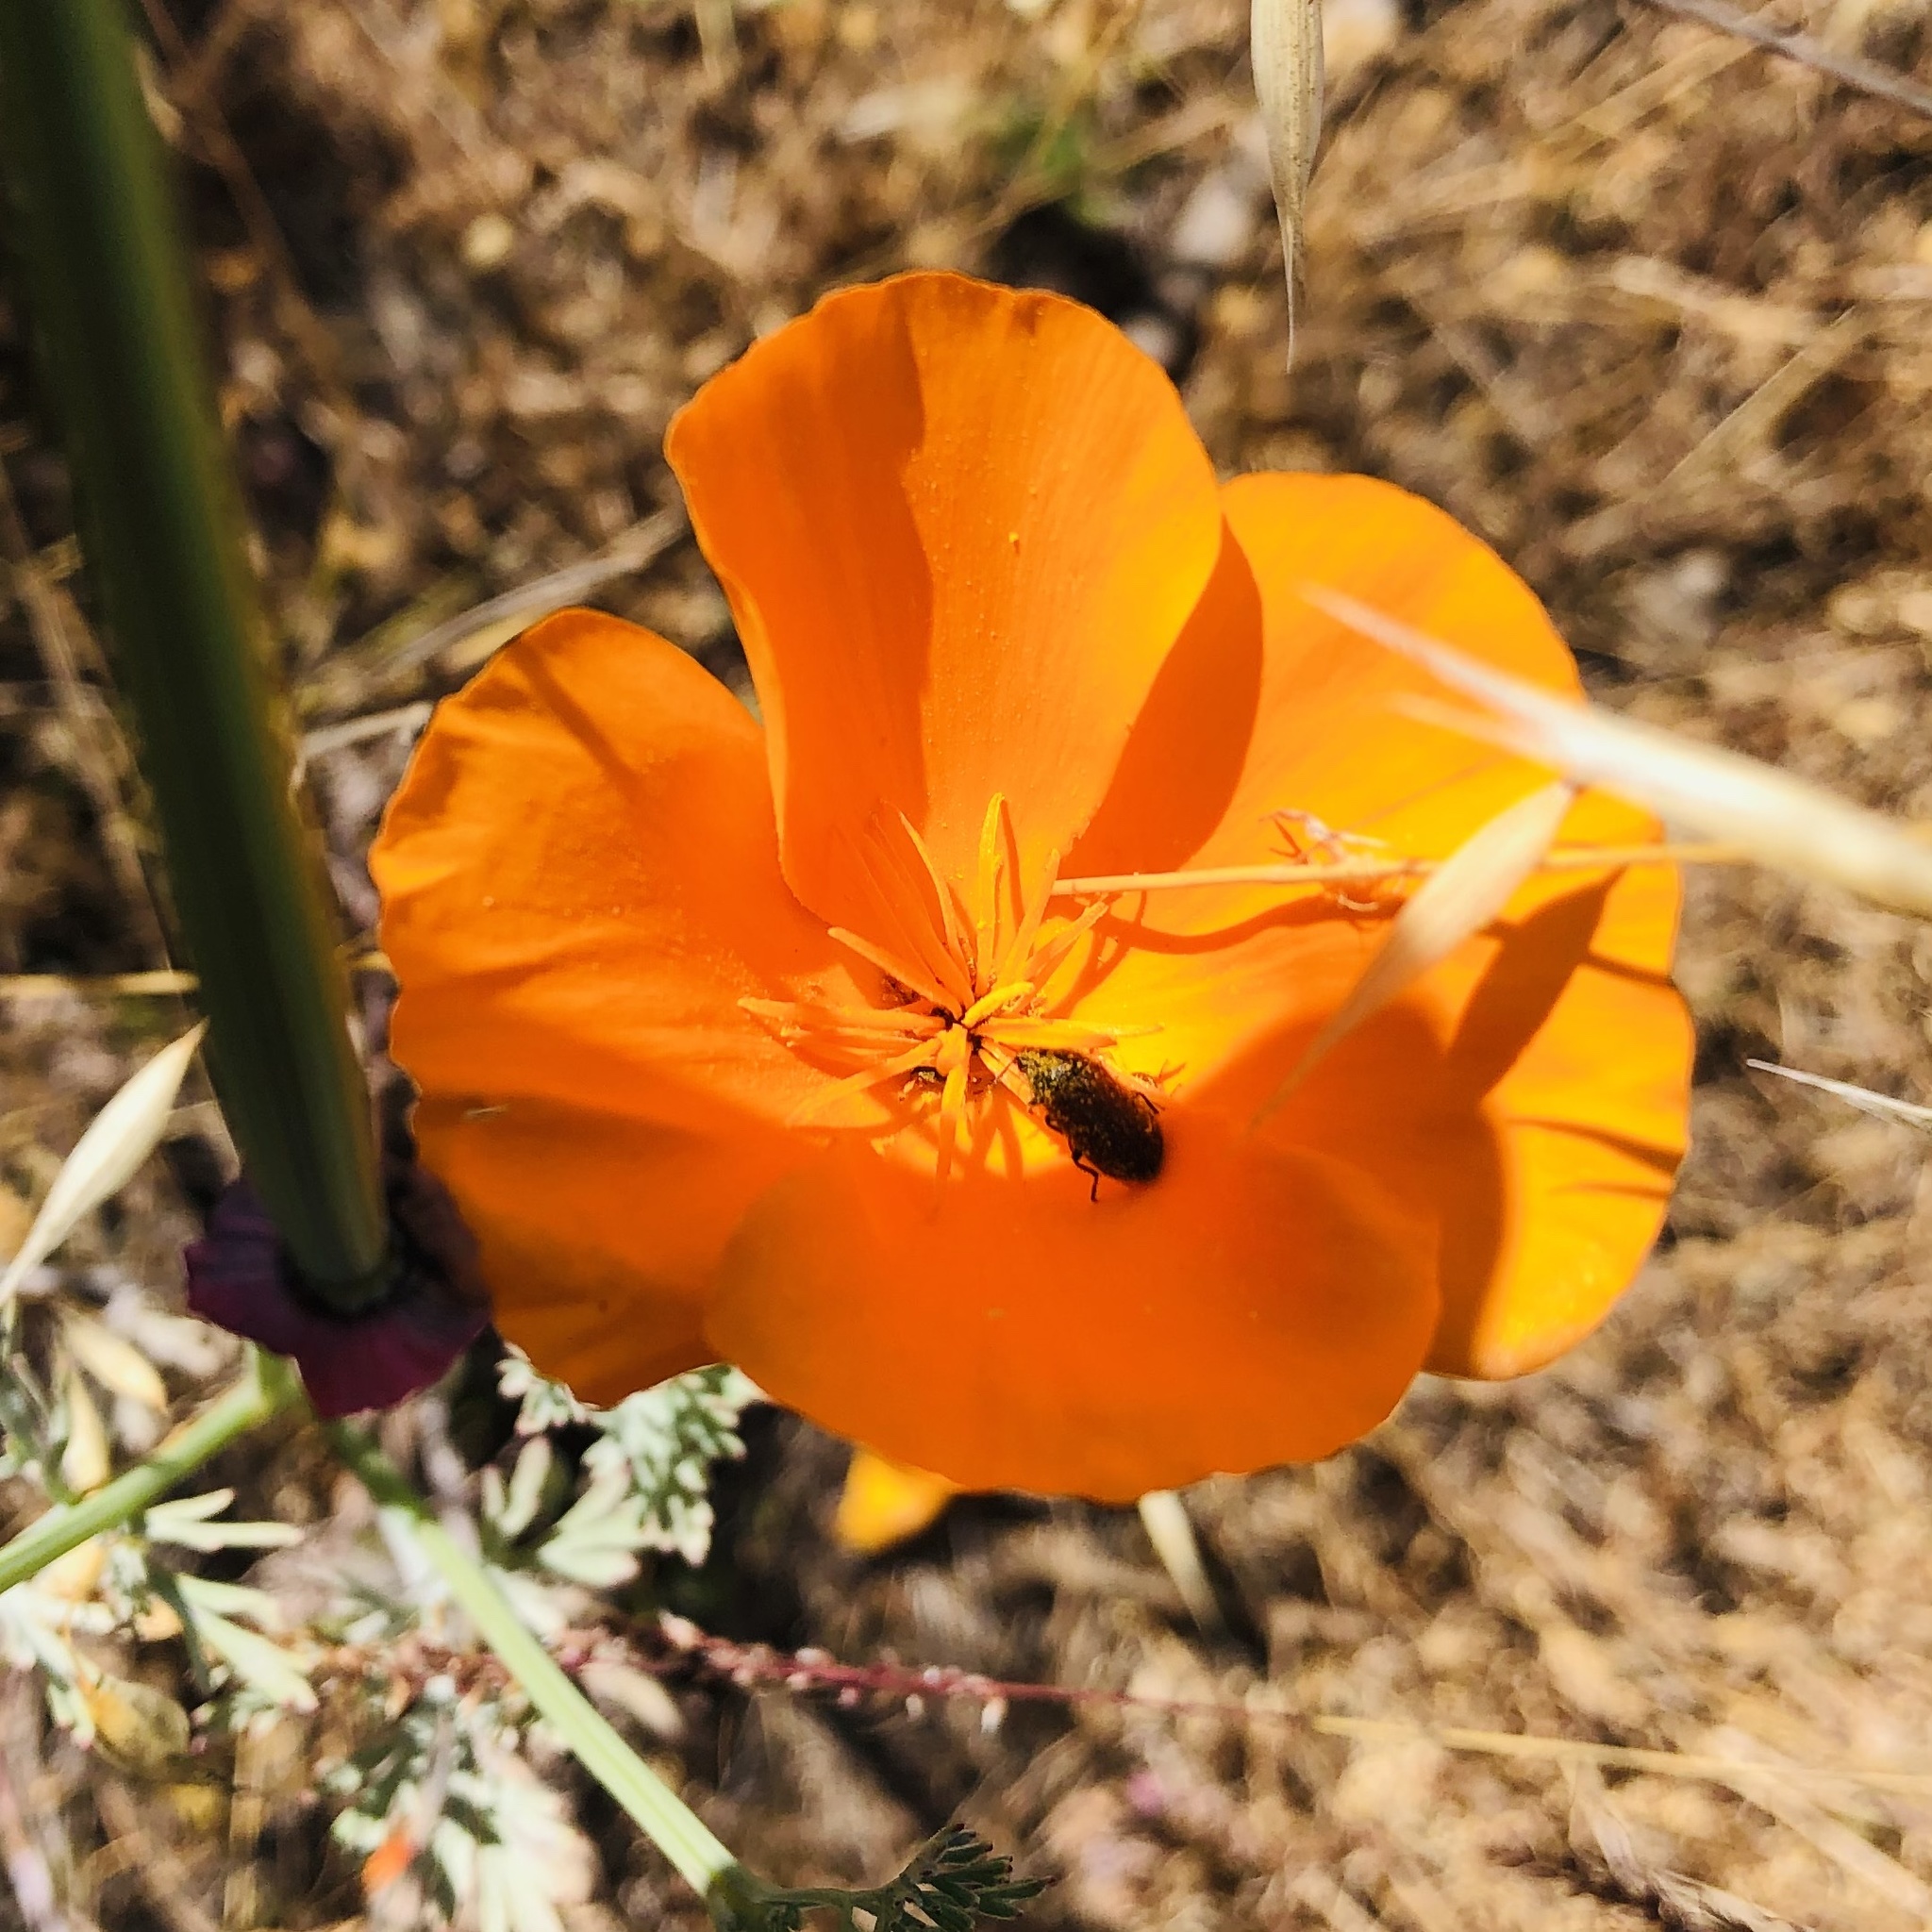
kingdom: Plantae
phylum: Tracheophyta
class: Magnoliopsida
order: Ranunculales
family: Papaveraceae
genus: Eschscholzia
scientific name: Eschscholzia californica
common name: California poppy
